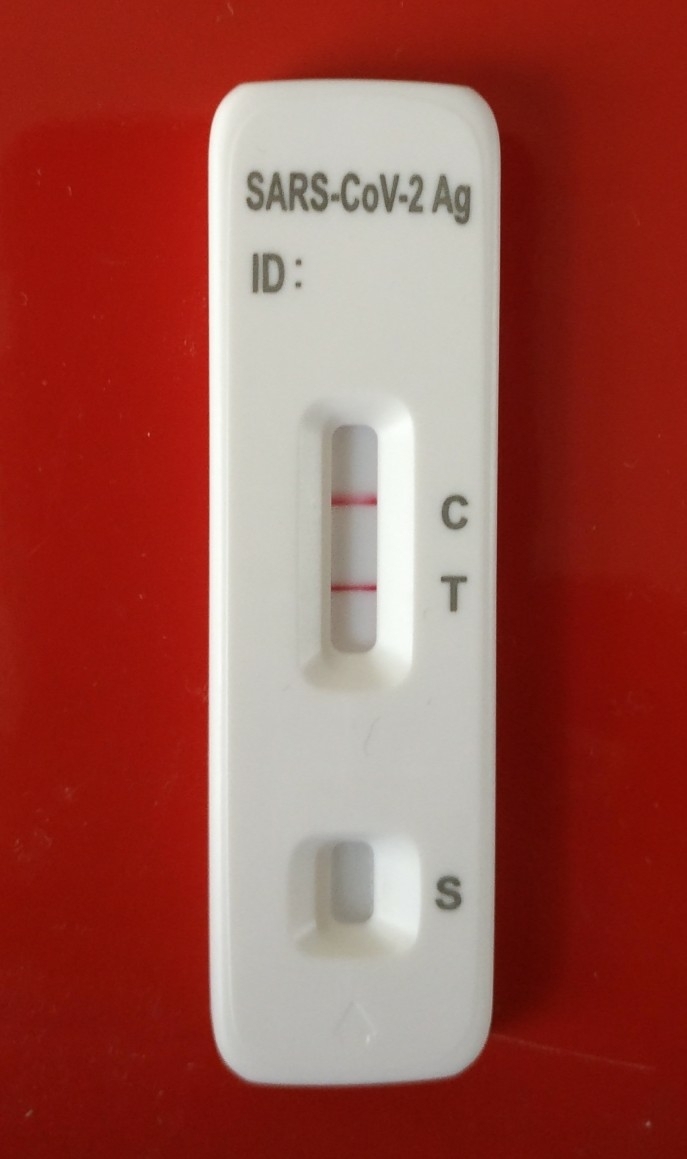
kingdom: Viruses
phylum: Pisuviricota
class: Pisoniviricetes
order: Nidovirales
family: Coronaviridae
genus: Betacoronavirus
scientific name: Betacoronavirus
